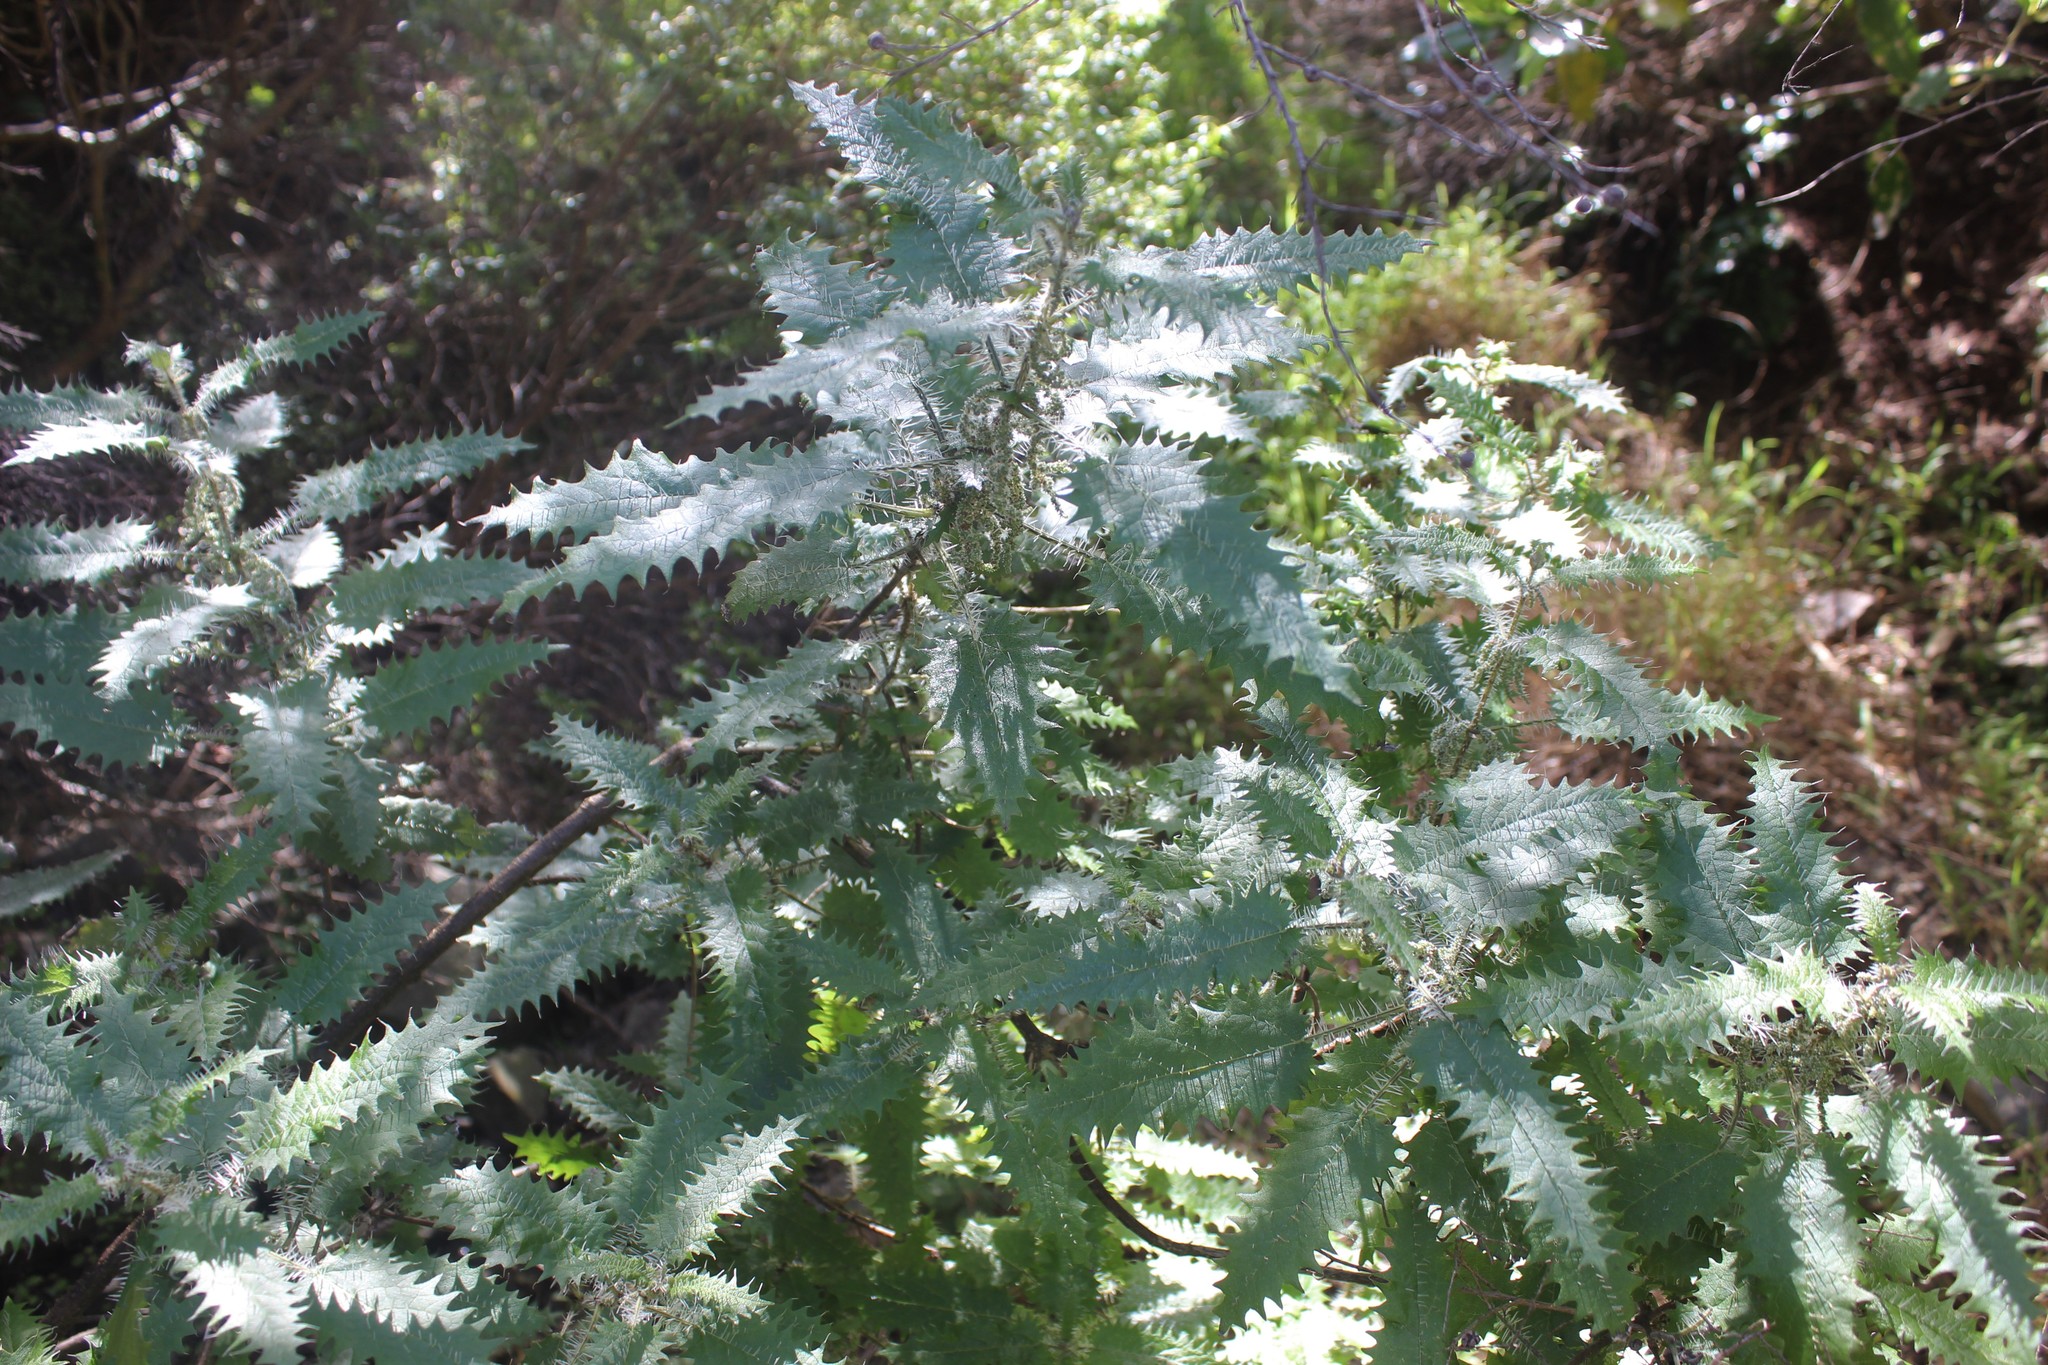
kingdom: Plantae
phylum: Tracheophyta
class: Magnoliopsida
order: Rosales
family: Urticaceae
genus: Urtica
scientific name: Urtica ferox
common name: Tree nettle
